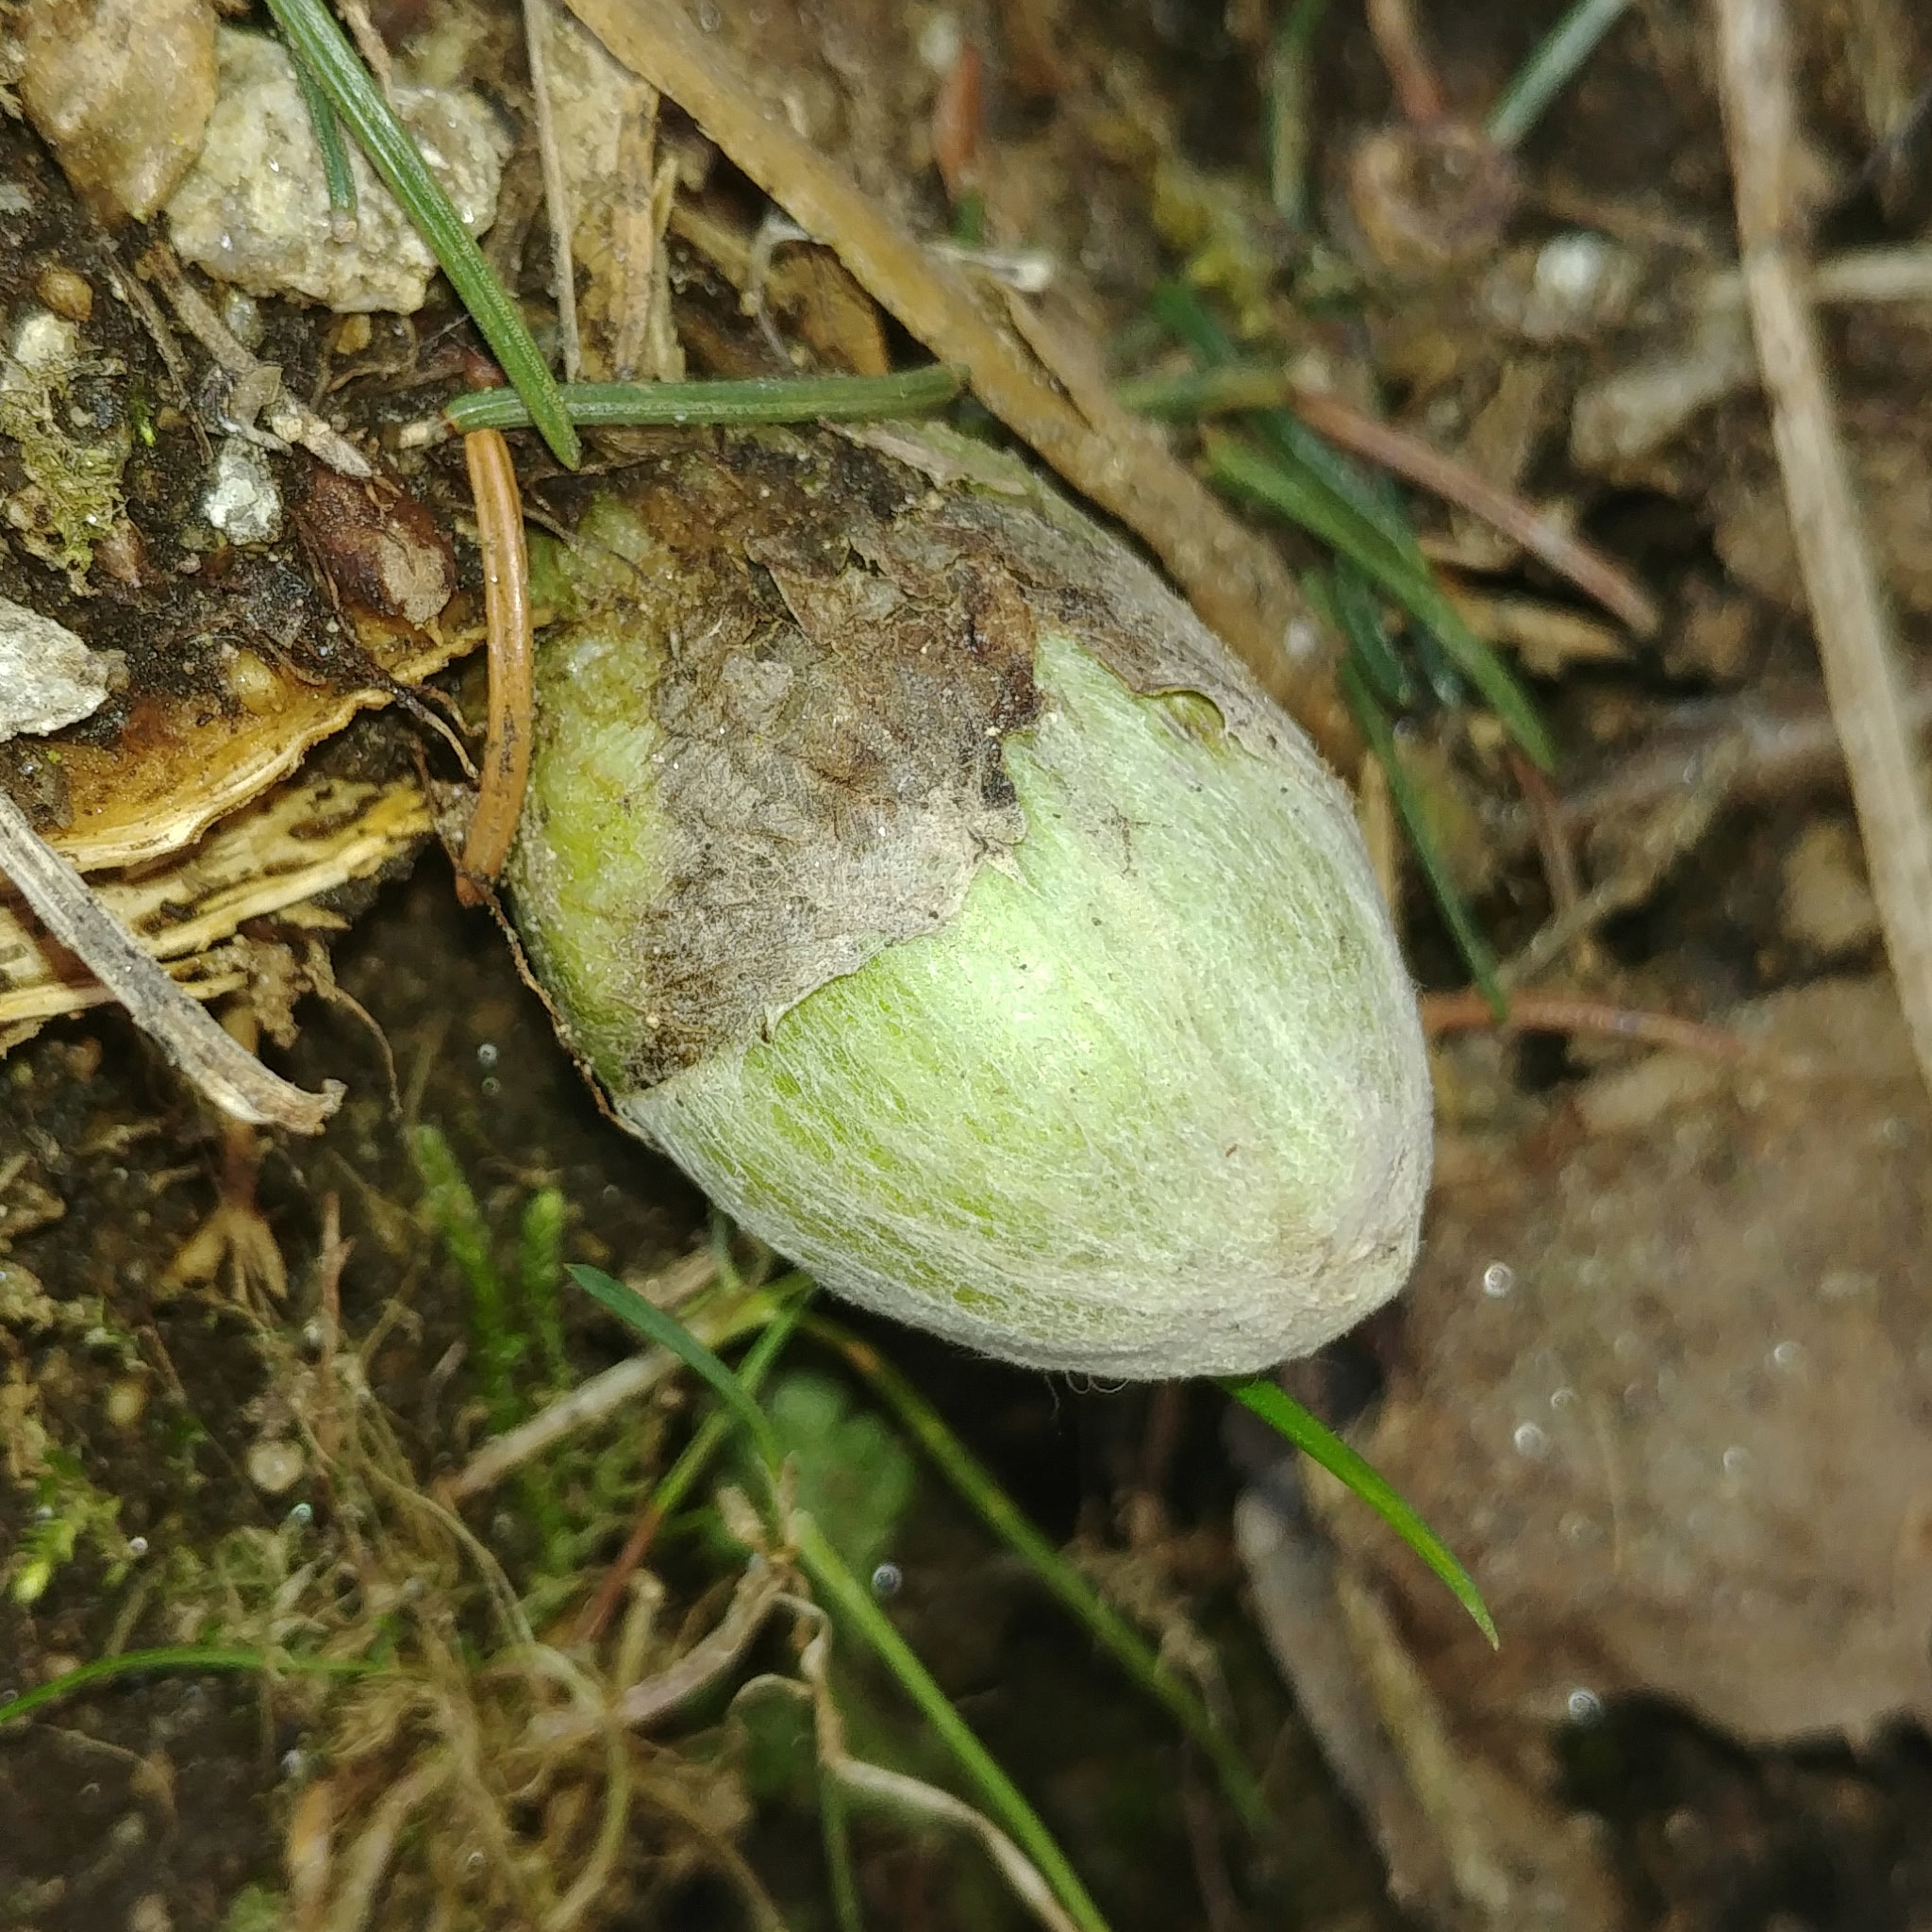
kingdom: Plantae
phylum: Tracheophyta
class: Magnoliopsida
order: Asterales
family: Asteraceae
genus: Petasites
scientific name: Petasites albus
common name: White butterbur
